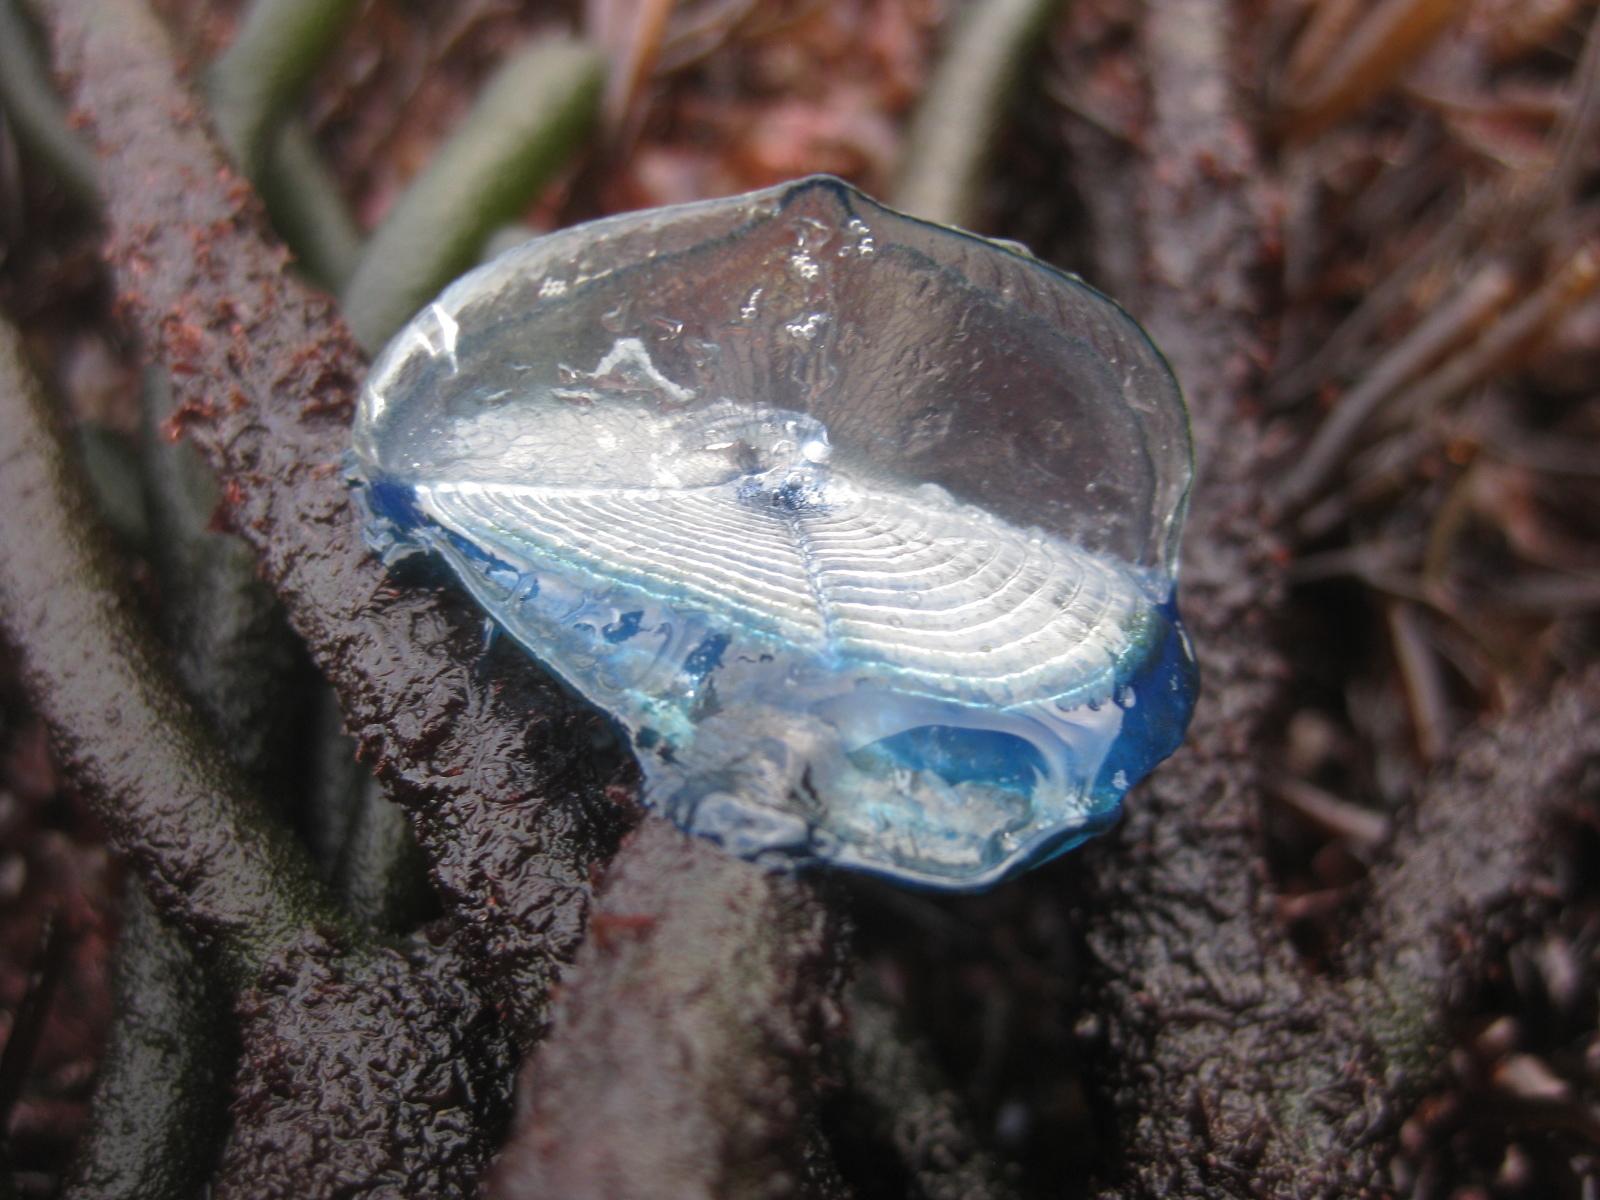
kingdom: Animalia
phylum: Cnidaria
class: Hydrozoa
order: Anthoathecata
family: Porpitidae
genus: Velella
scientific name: Velella velella
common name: By-the-wind-sailor
